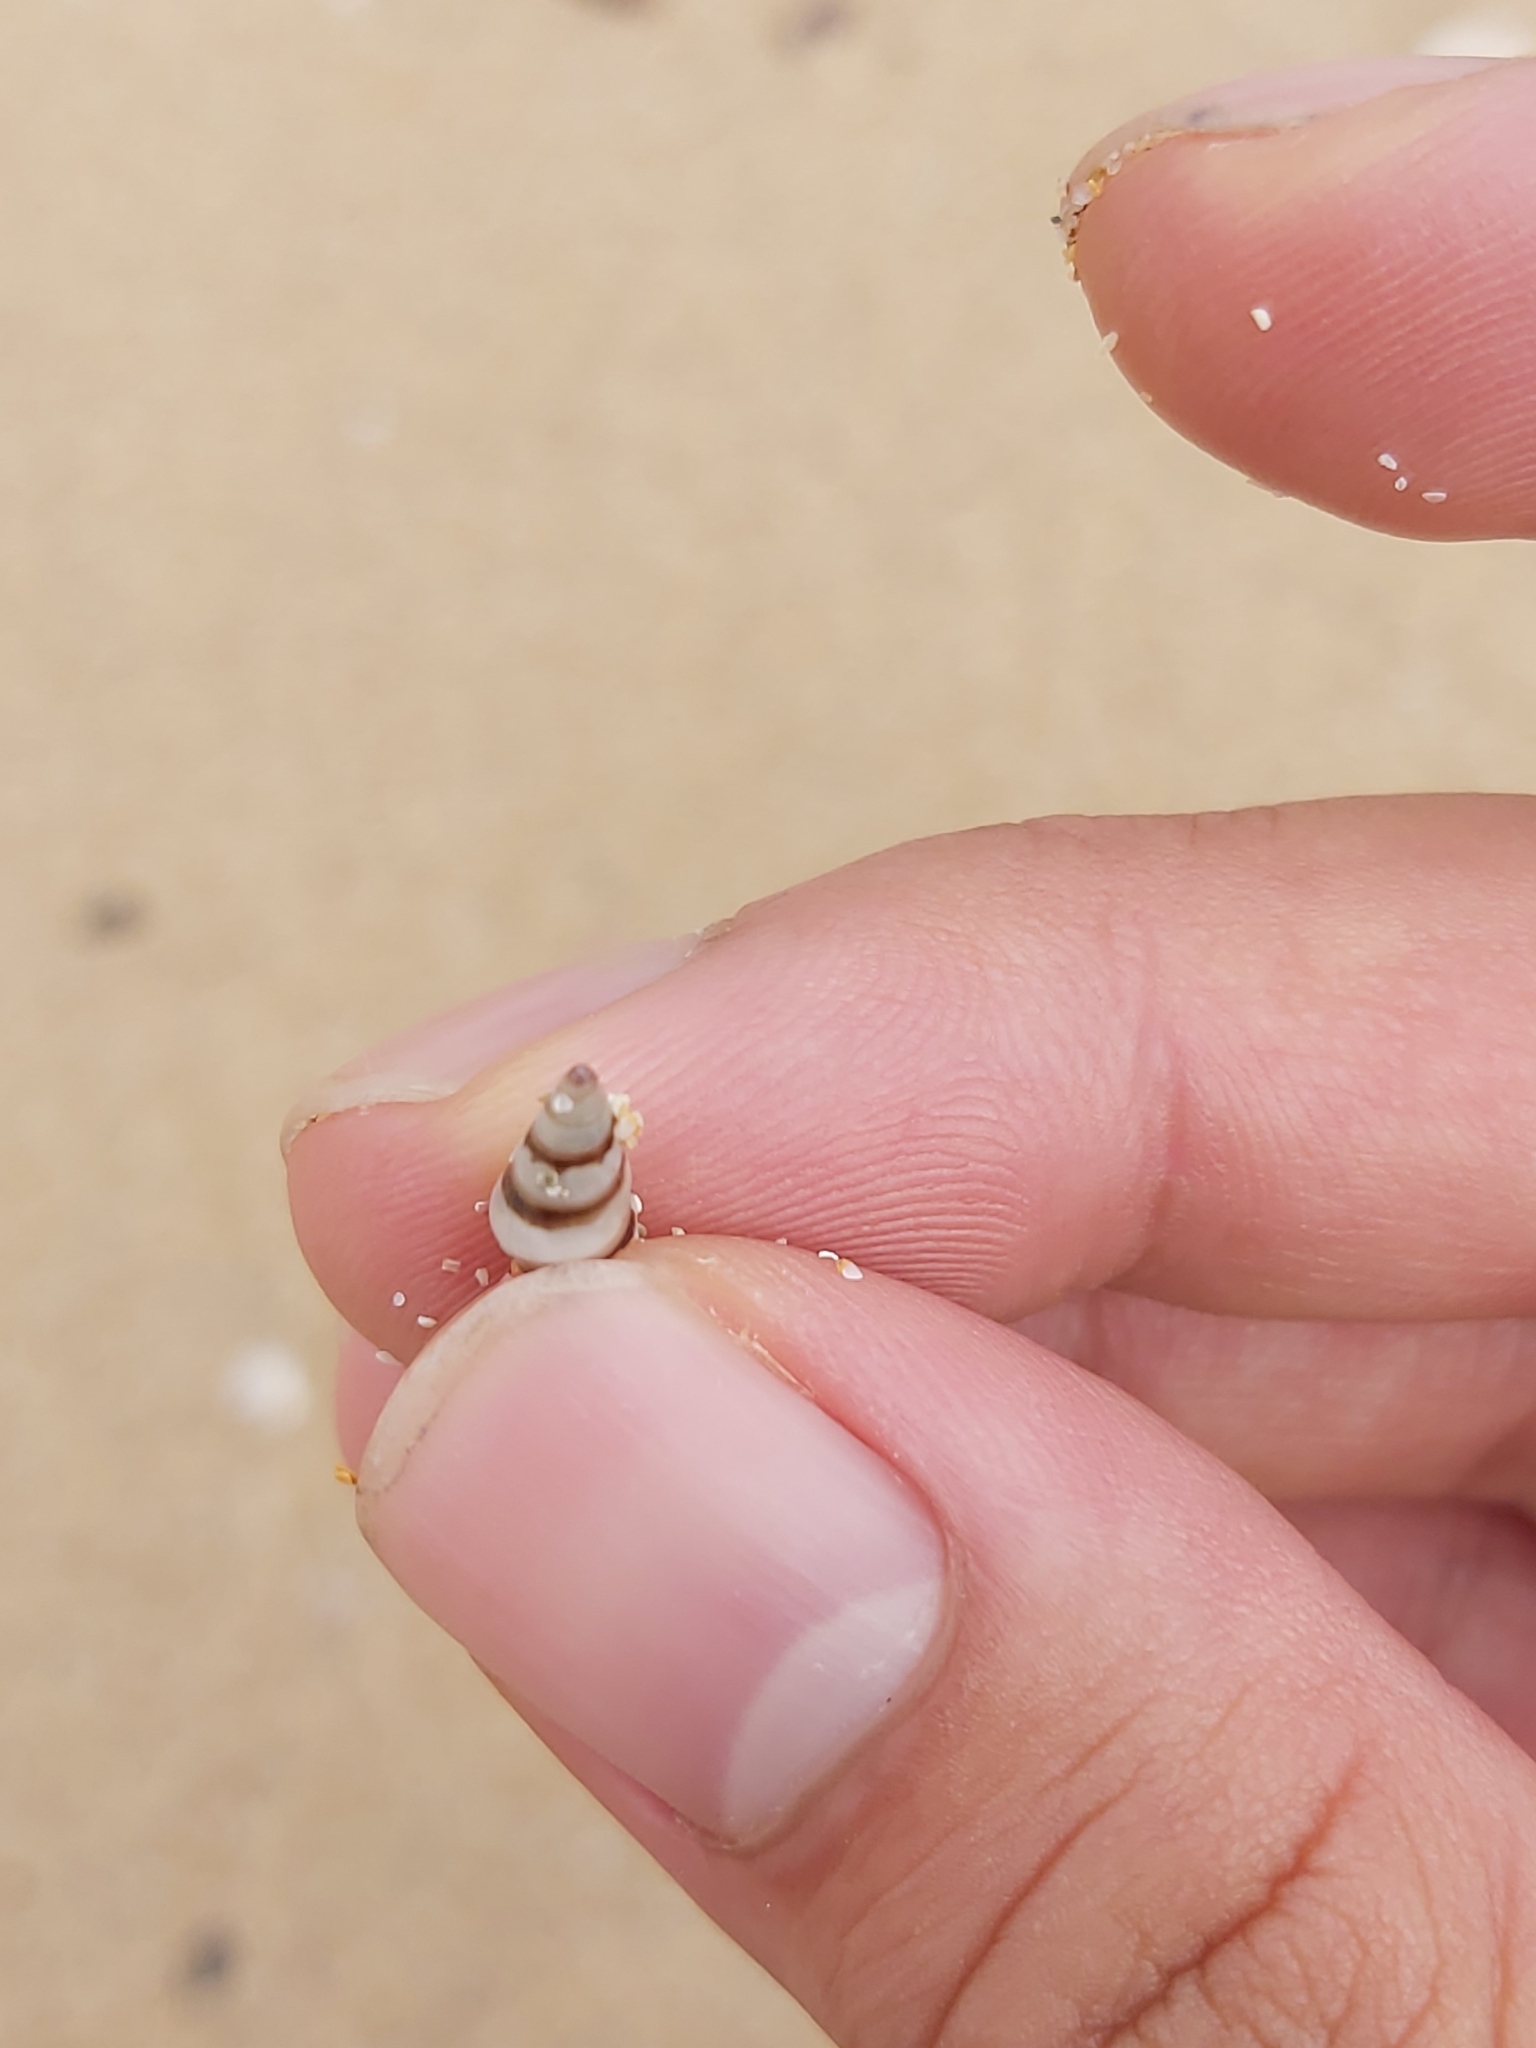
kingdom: Animalia
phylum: Mollusca
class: Gastropoda
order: Trochida
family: Trochidae
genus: Bankivia
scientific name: Bankivia fasciata
